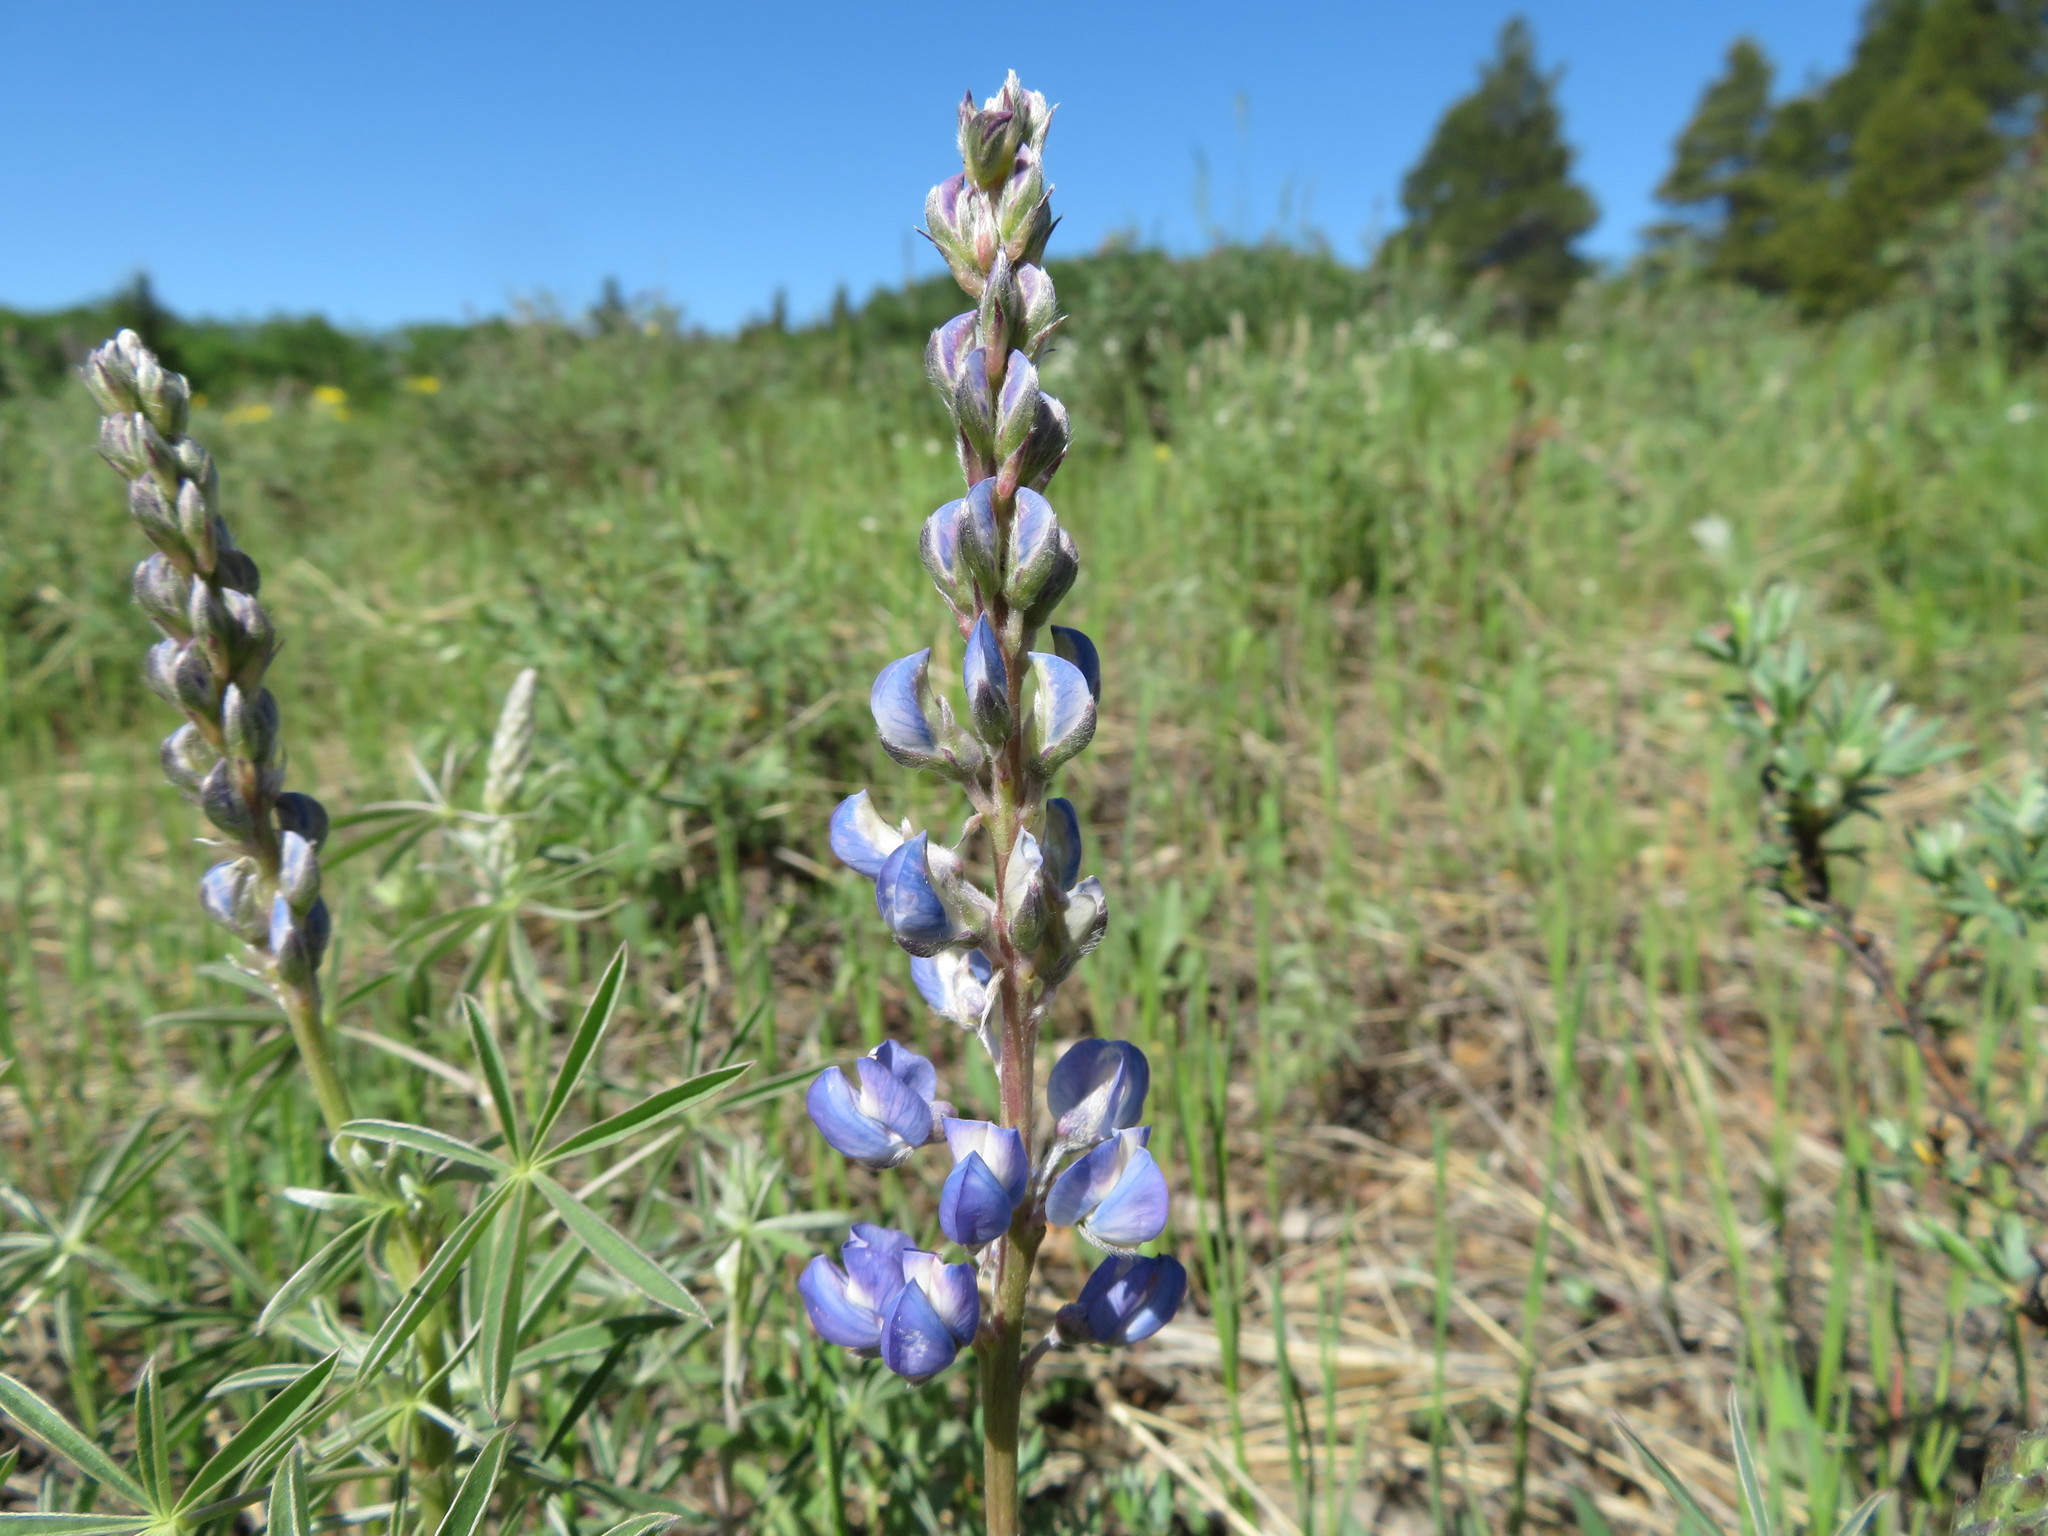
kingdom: Plantae
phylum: Tracheophyta
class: Magnoliopsida
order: Fabales
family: Fabaceae
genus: Lupinus
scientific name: Lupinus argenteus
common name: Silvery lupine
